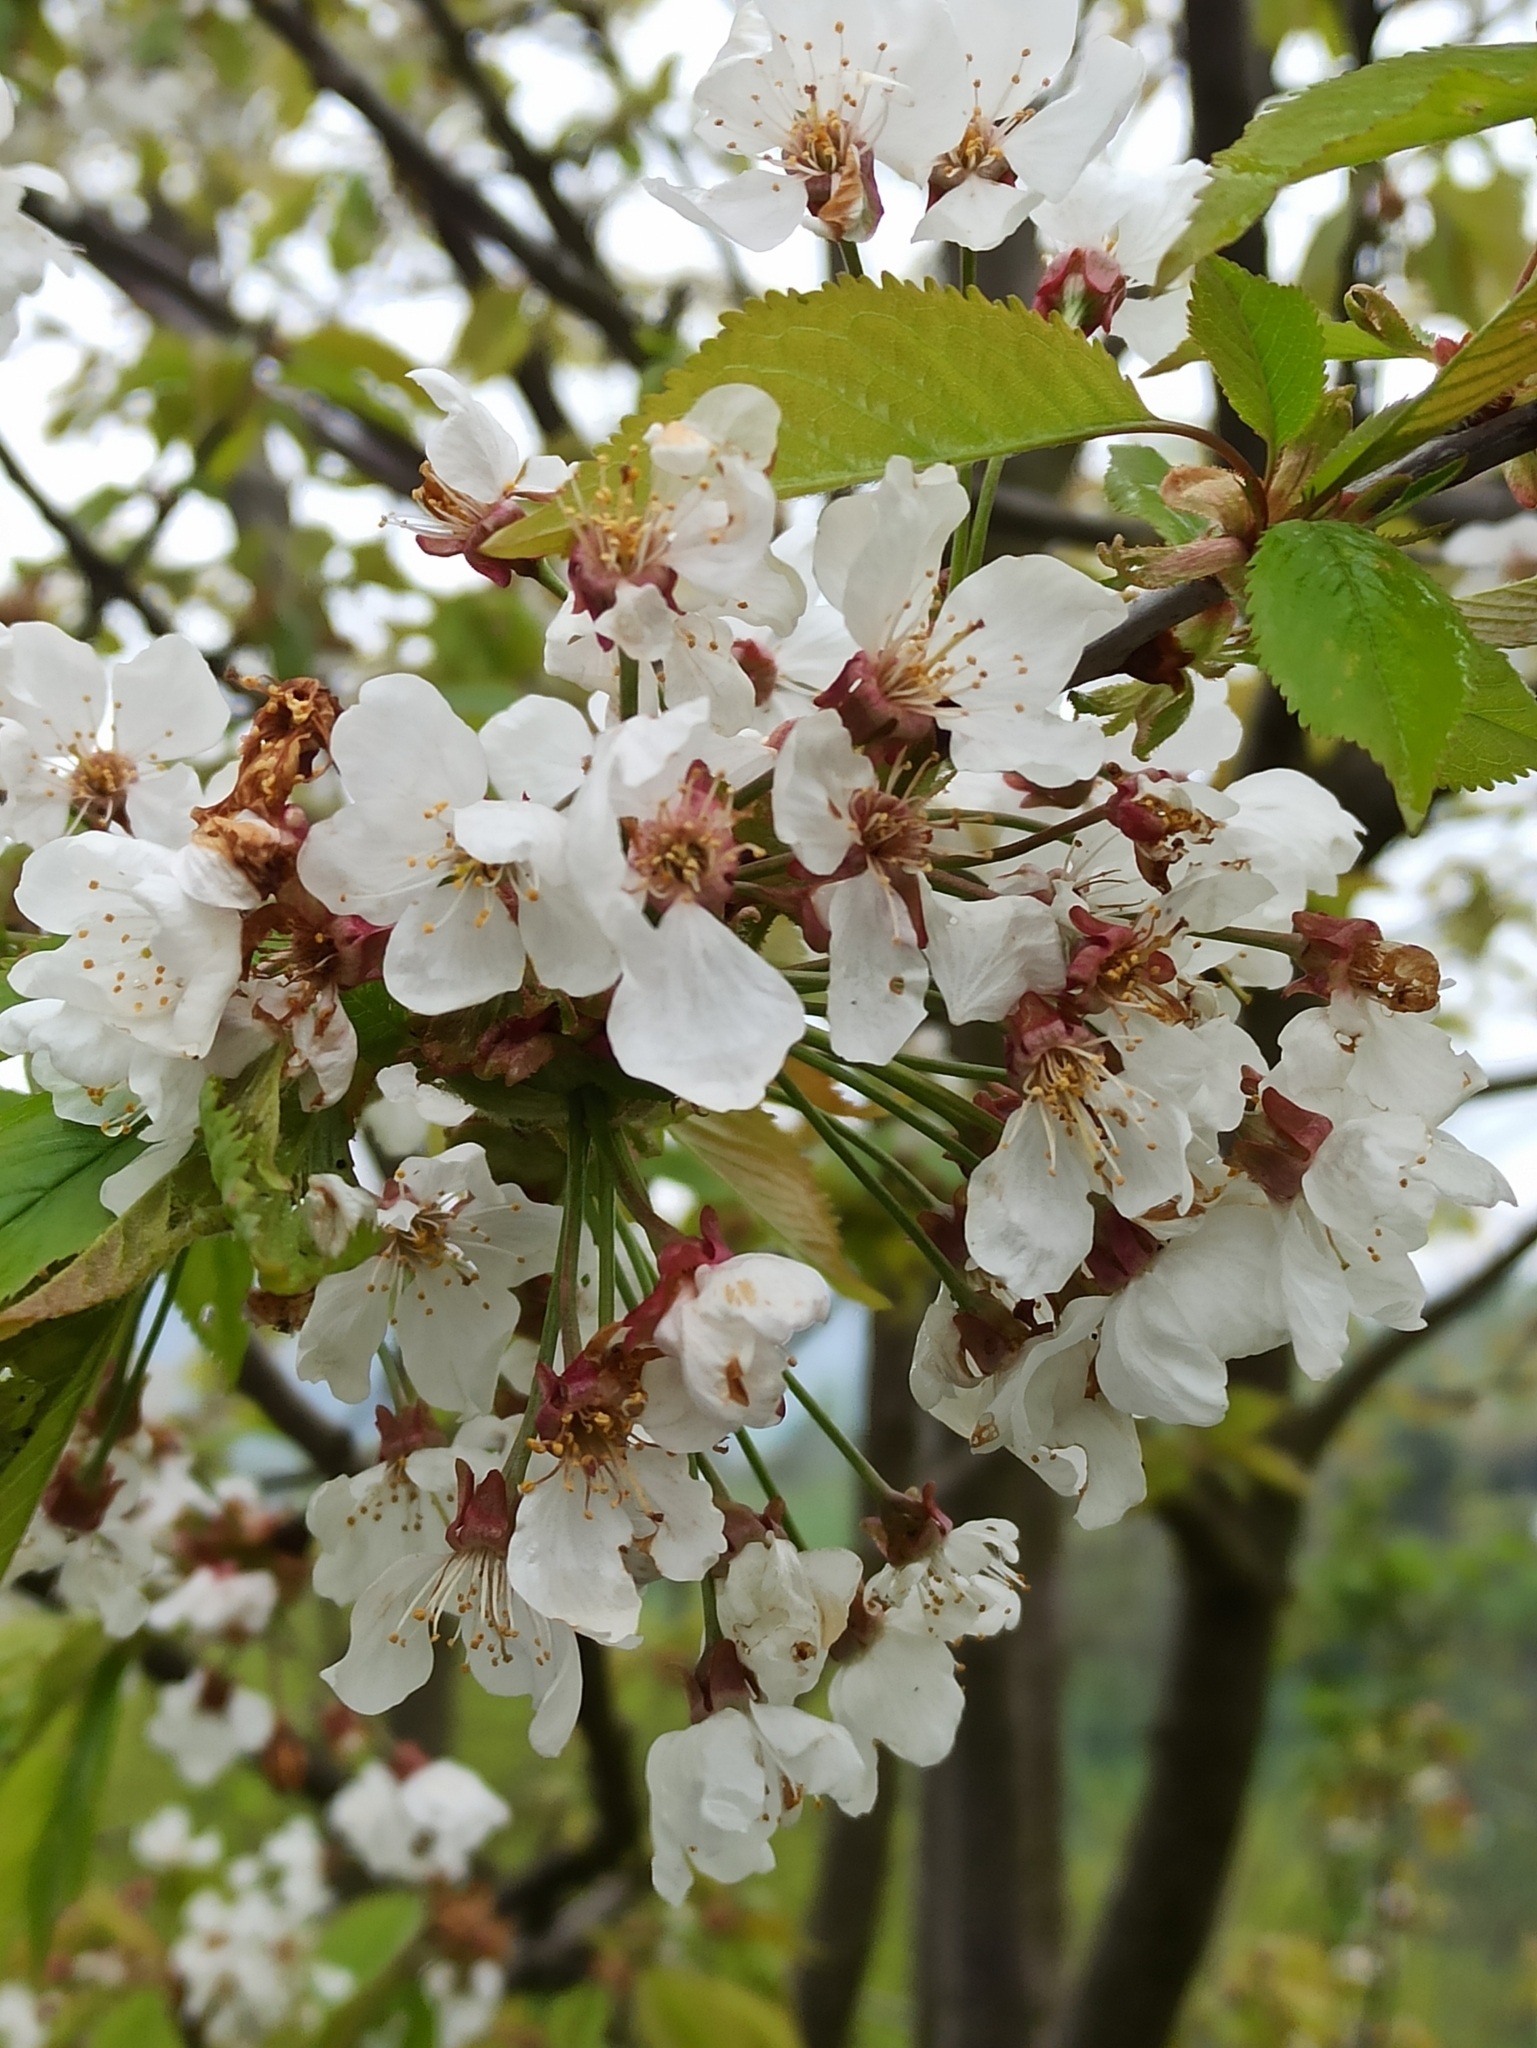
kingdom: Plantae
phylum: Tracheophyta
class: Magnoliopsida
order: Rosales
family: Rosaceae
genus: Prunus
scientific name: Prunus avium
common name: Sweet cherry
